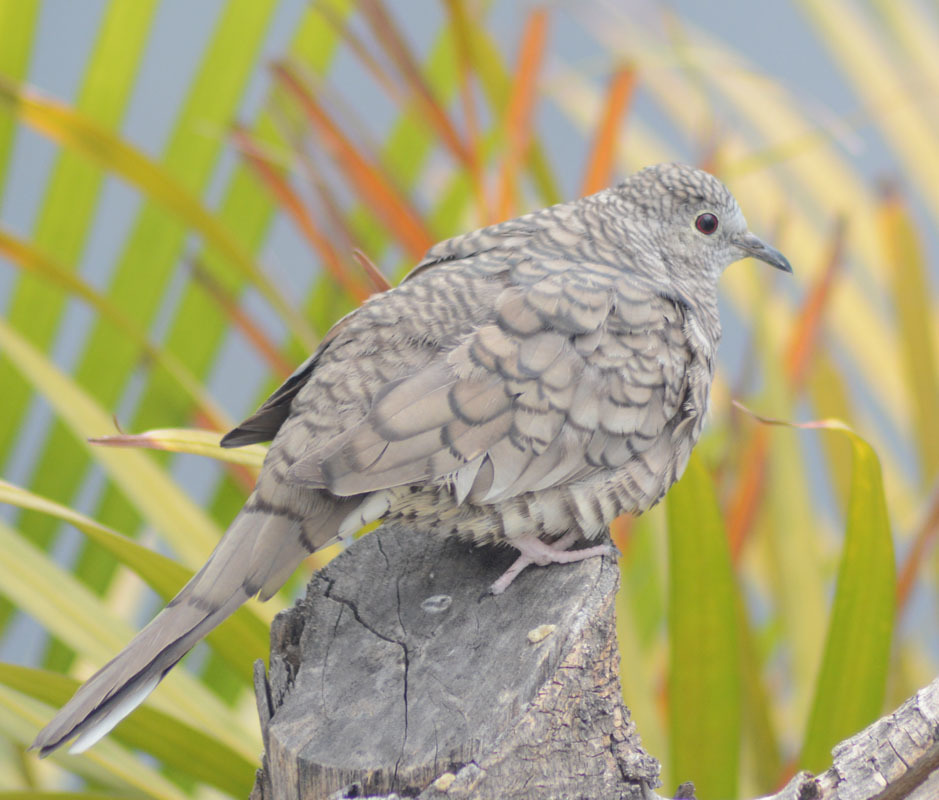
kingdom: Animalia
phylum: Chordata
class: Aves
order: Columbiformes
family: Columbidae
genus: Columbina
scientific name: Columbina inca
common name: Inca dove
